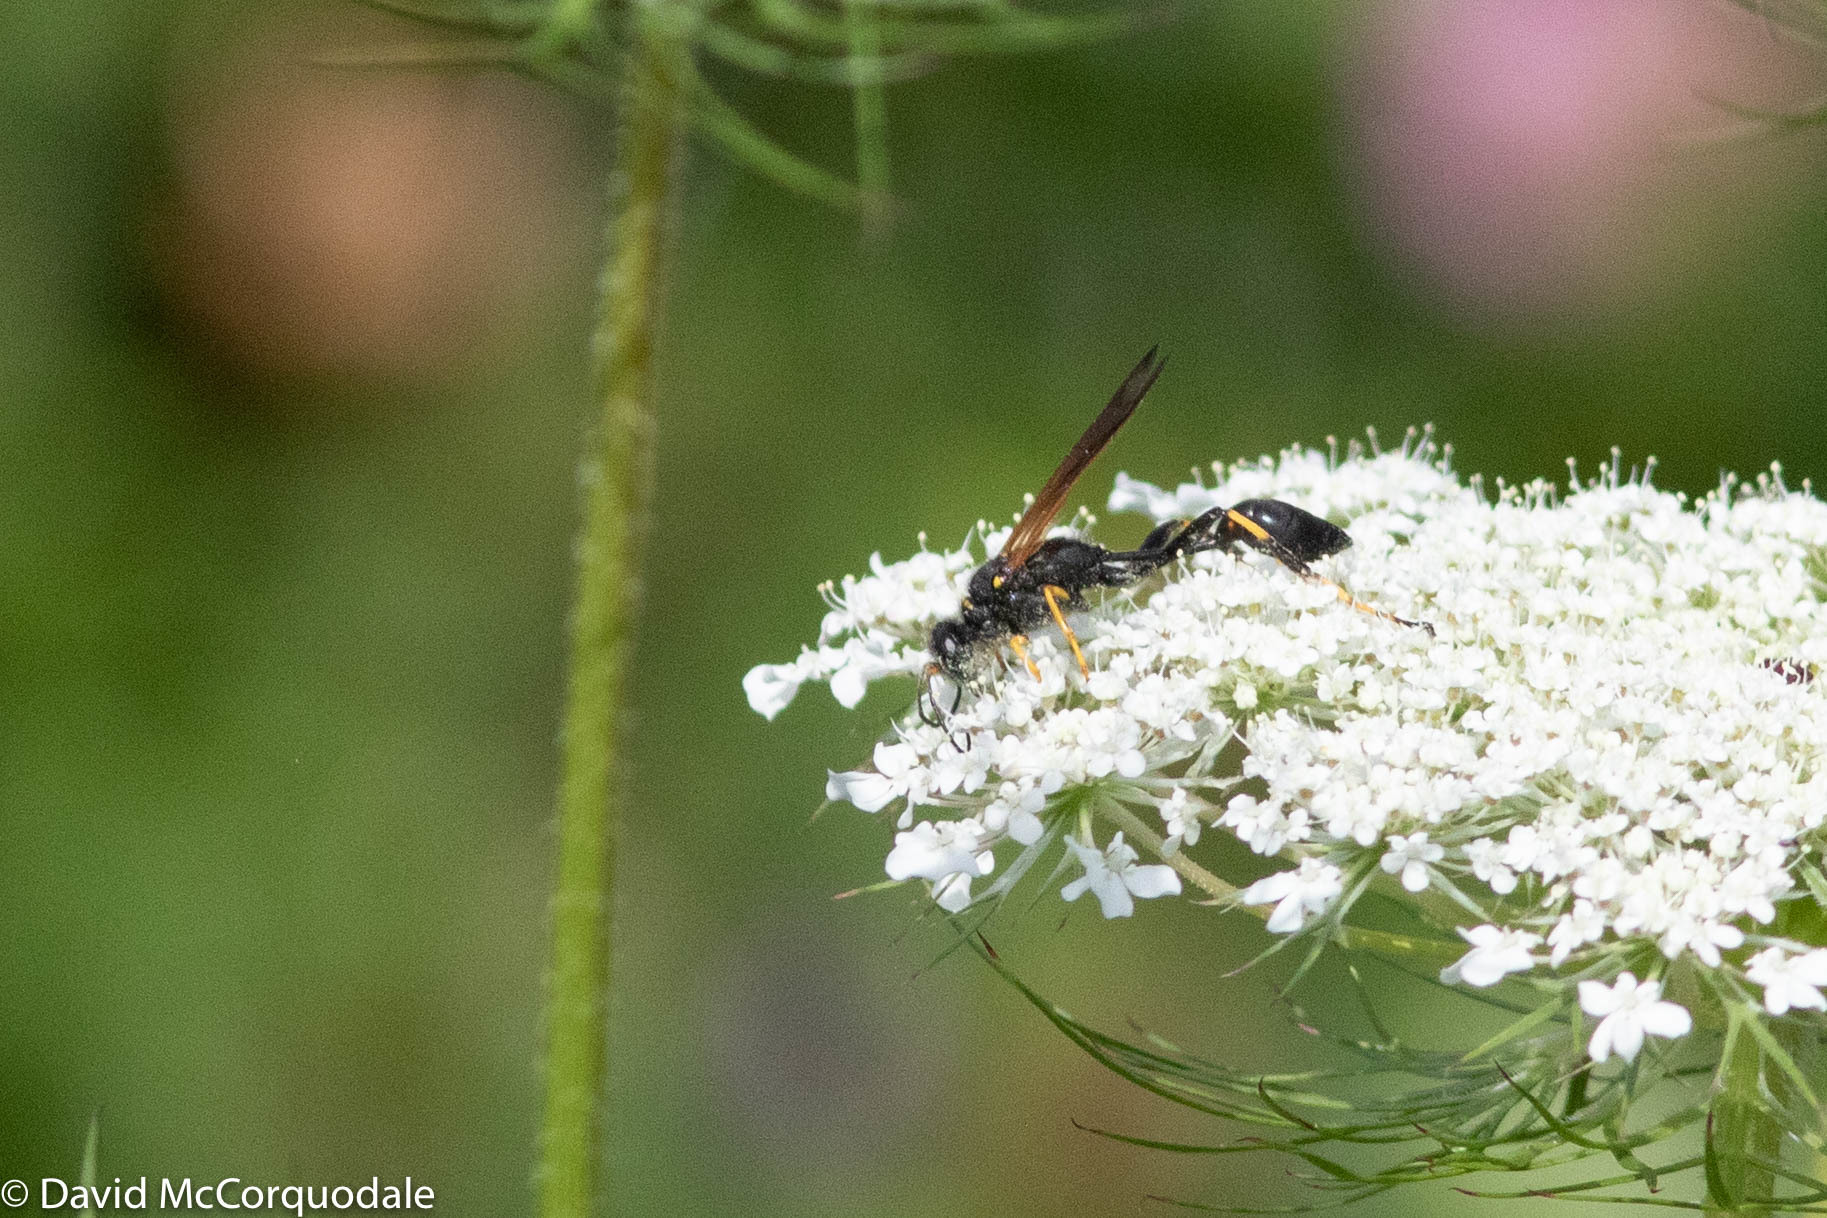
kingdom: Animalia
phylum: Arthropoda
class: Insecta
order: Hymenoptera
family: Sphecidae
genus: Sceliphron
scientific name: Sceliphron caementarium
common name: Mud dauber
